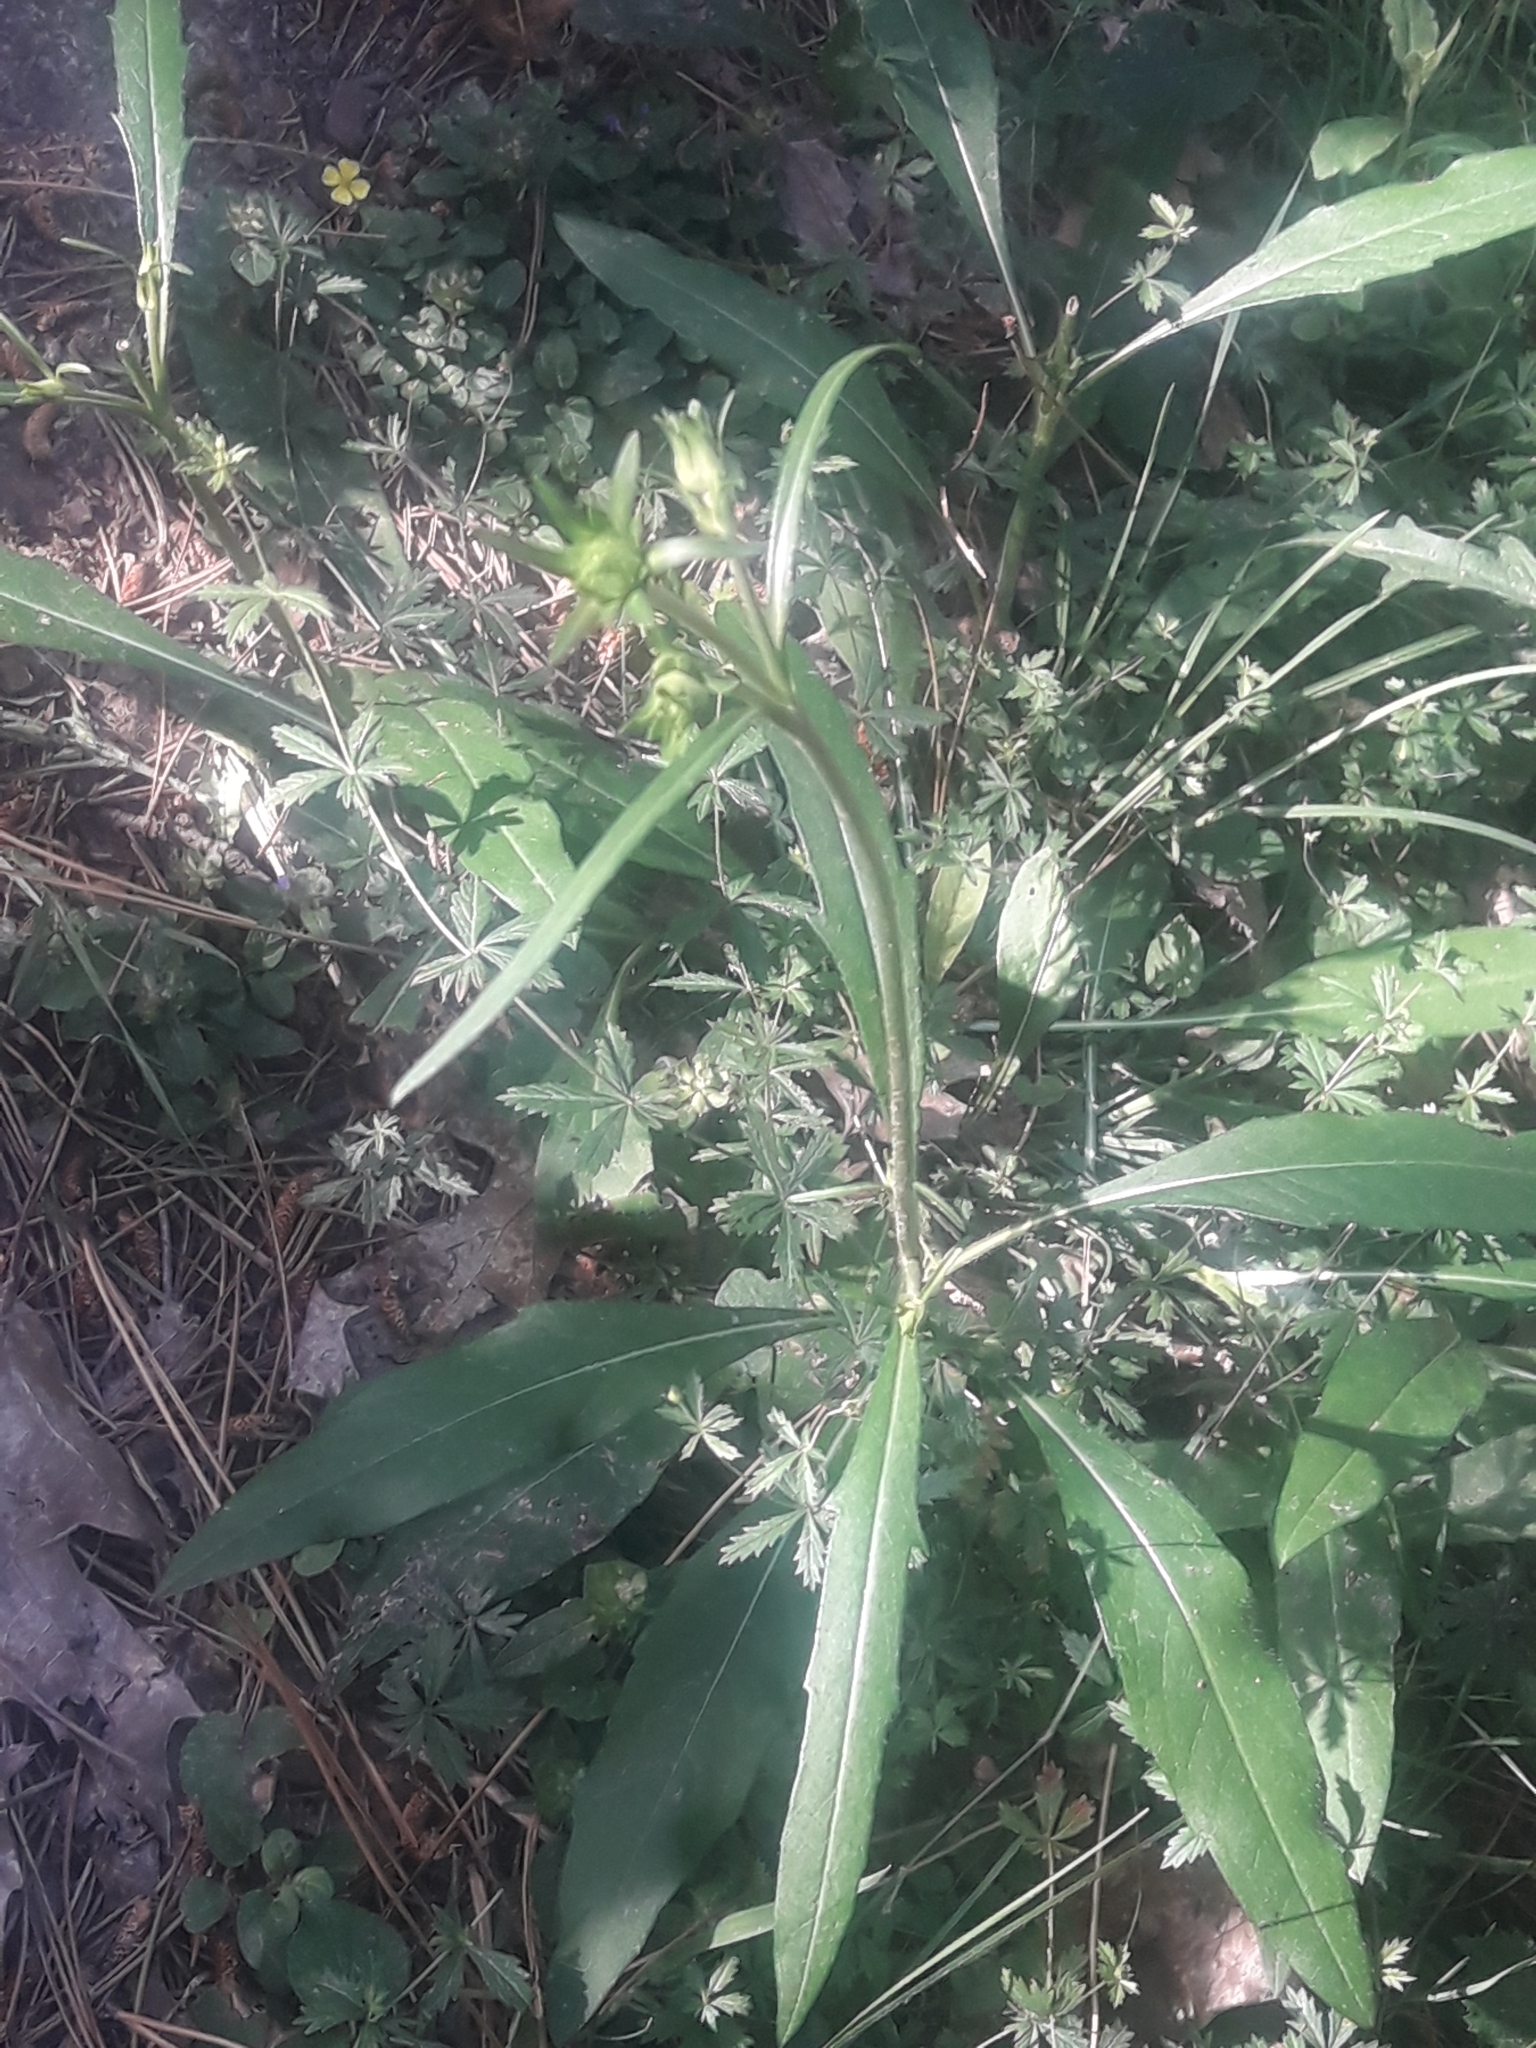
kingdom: Plantae
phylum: Tracheophyta
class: Magnoliopsida
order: Dipsacales
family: Caprifoliaceae
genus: Succisa
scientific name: Succisa pratensis
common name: Devil's-bit
